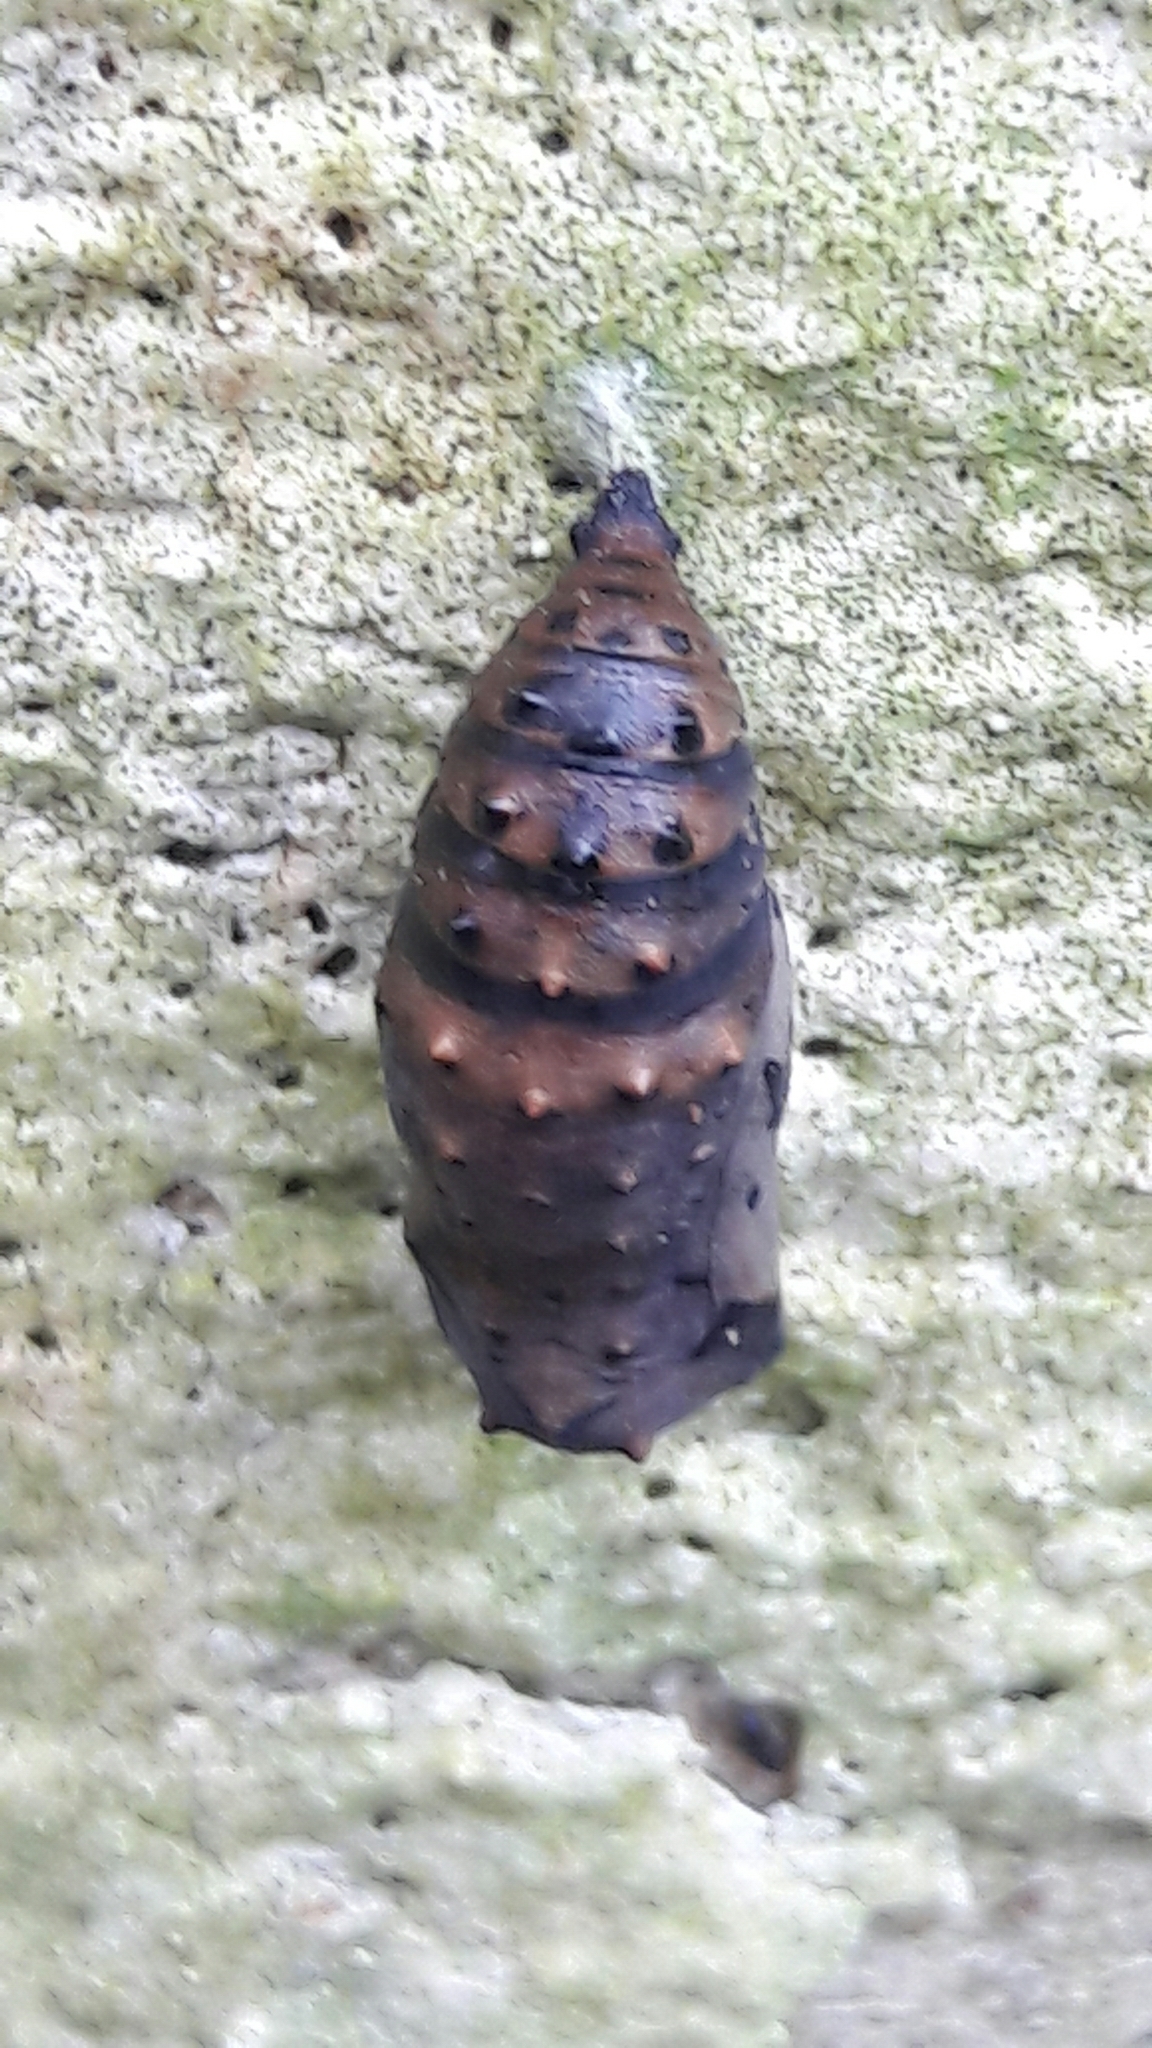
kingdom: Animalia
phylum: Arthropoda
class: Insecta
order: Lepidoptera
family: Nymphalidae
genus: Chlosyne
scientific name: Chlosyne lacinia
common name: Bordered patch
